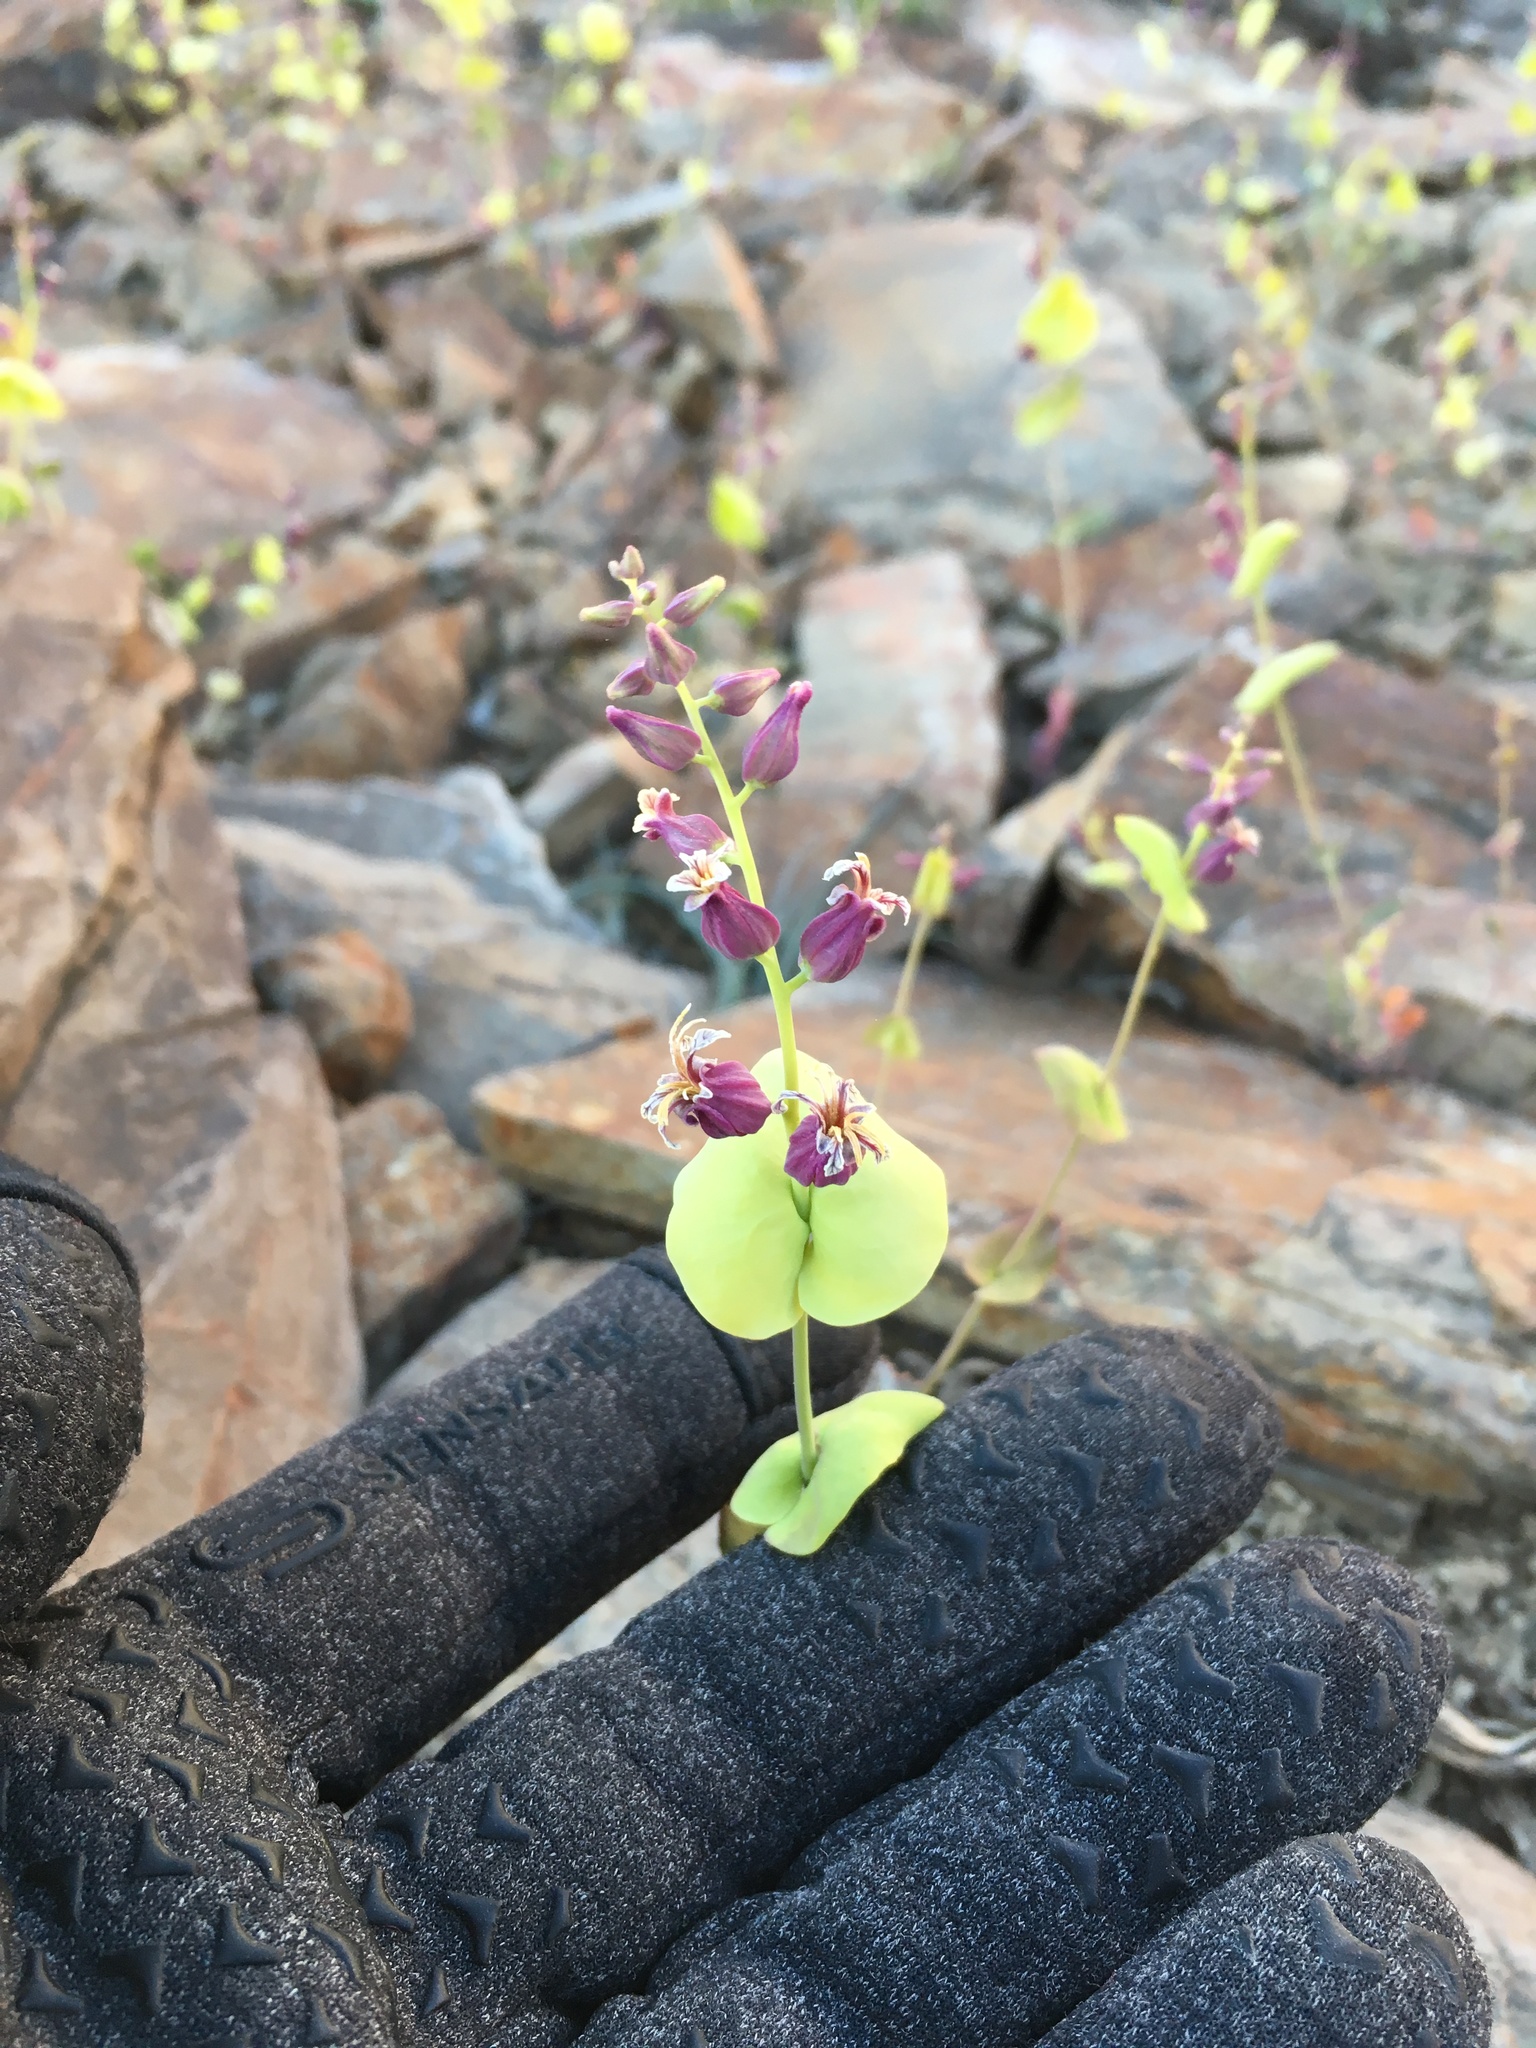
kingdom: Plantae
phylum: Tracheophyta
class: Magnoliopsida
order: Brassicales
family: Brassicaceae
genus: Streptanthus
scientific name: Streptanthus tortuosus
